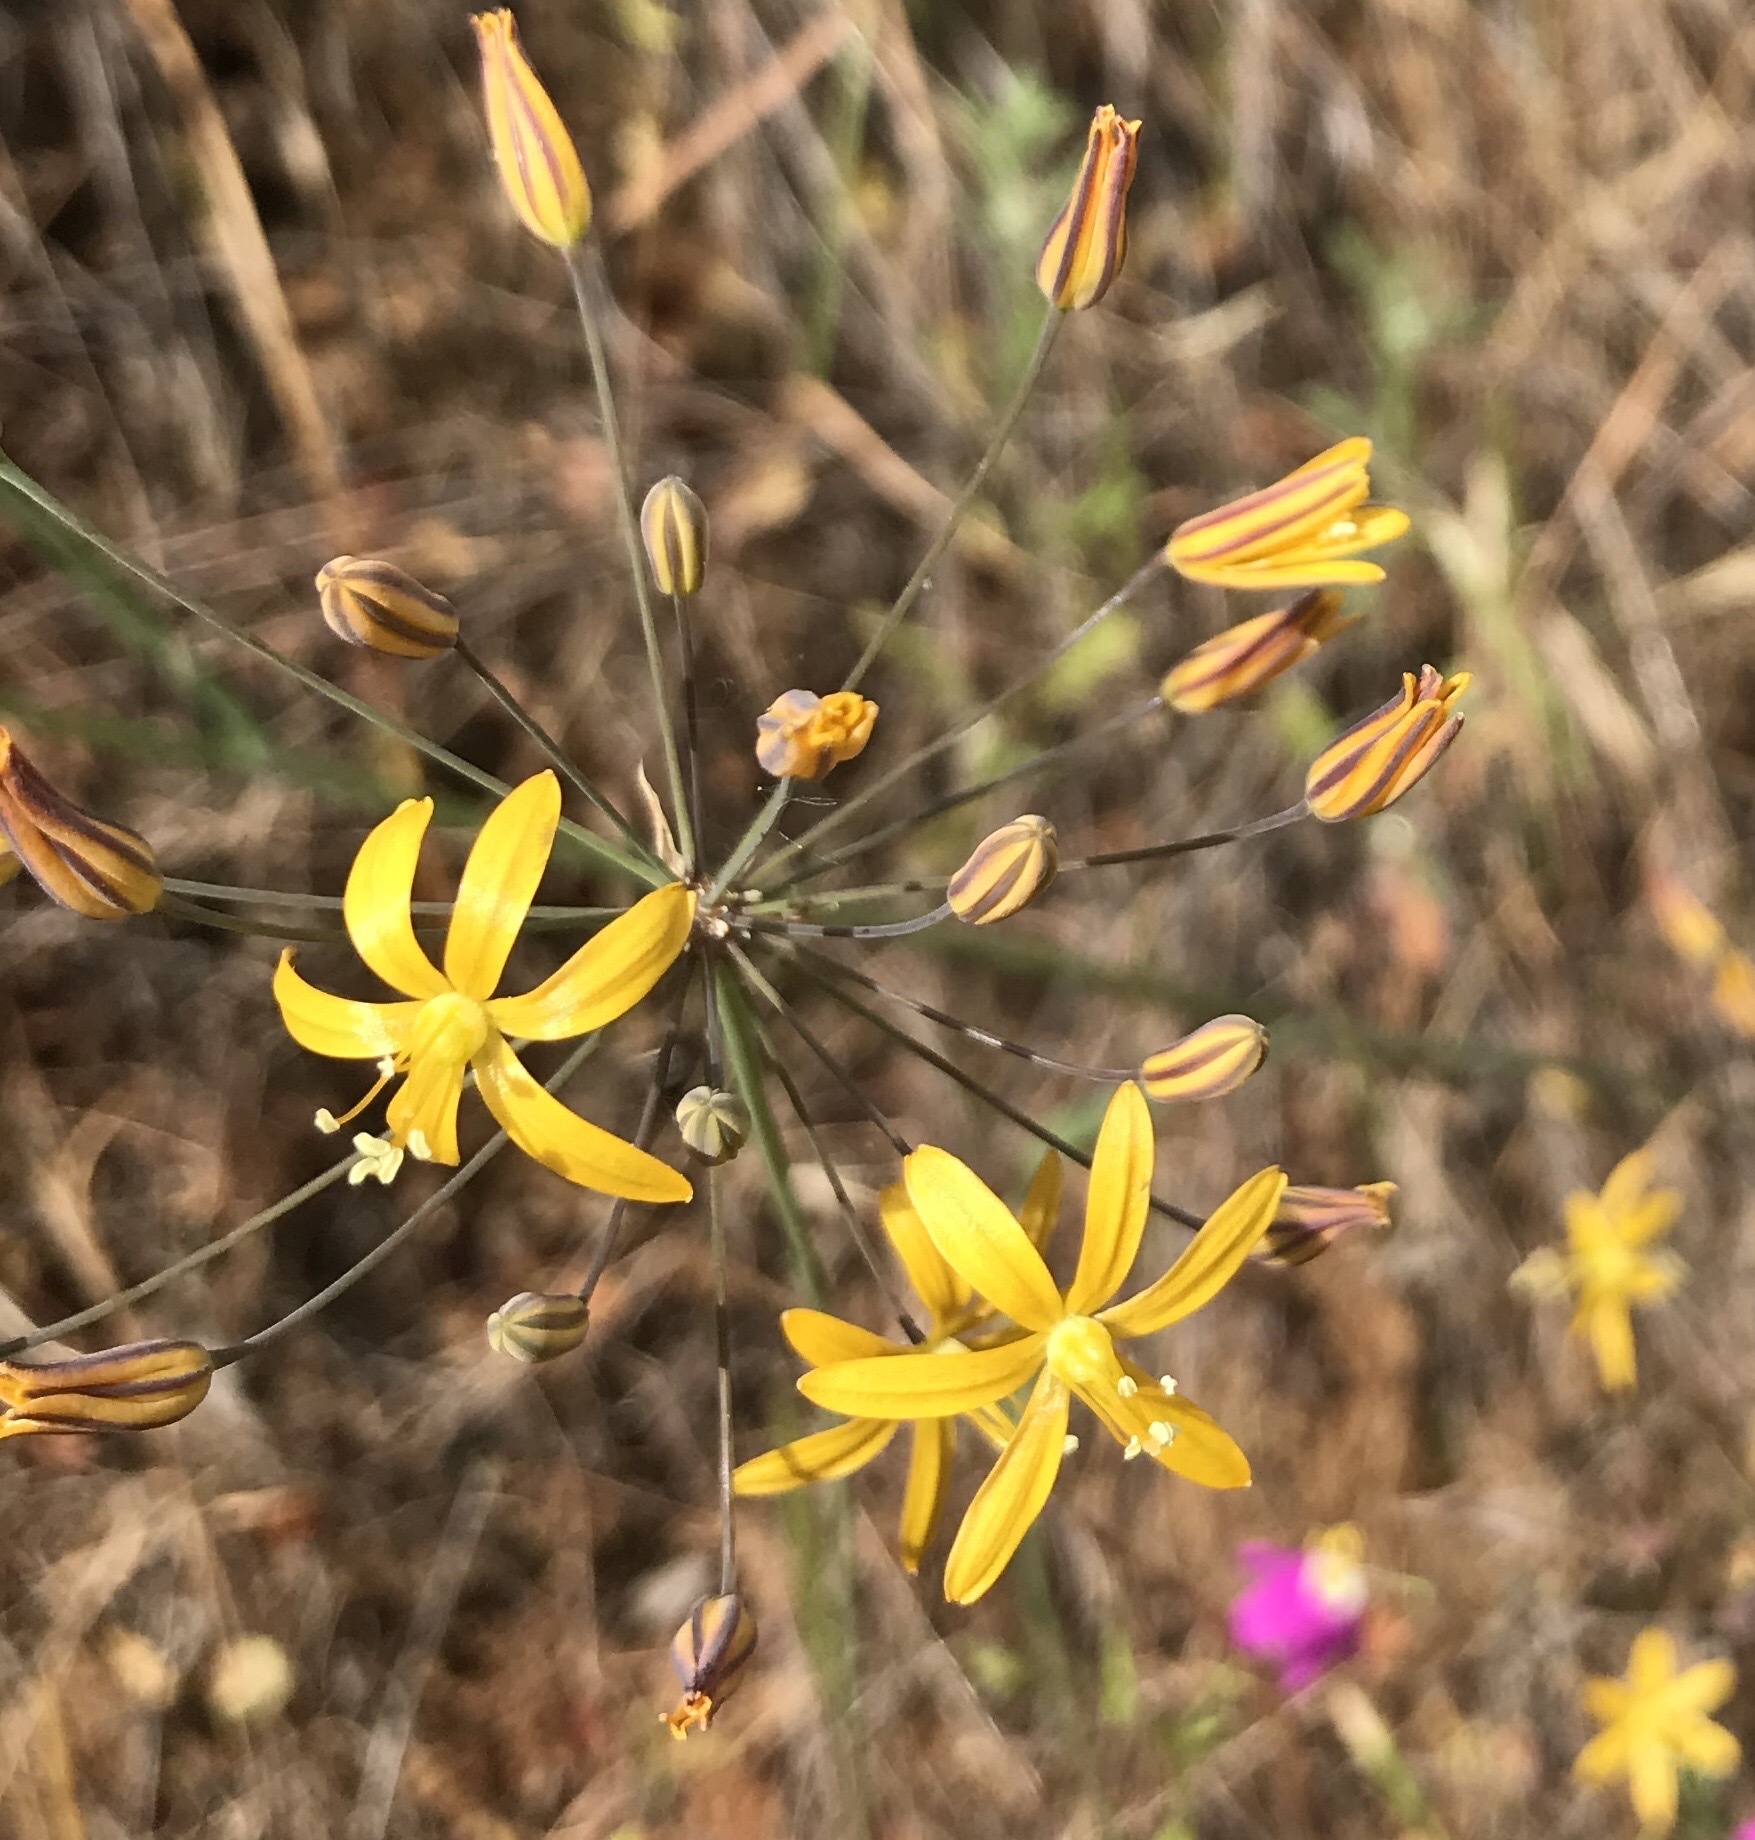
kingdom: Plantae
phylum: Tracheophyta
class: Liliopsida
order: Asparagales
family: Asparagaceae
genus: Bloomeria
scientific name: Bloomeria crocea
